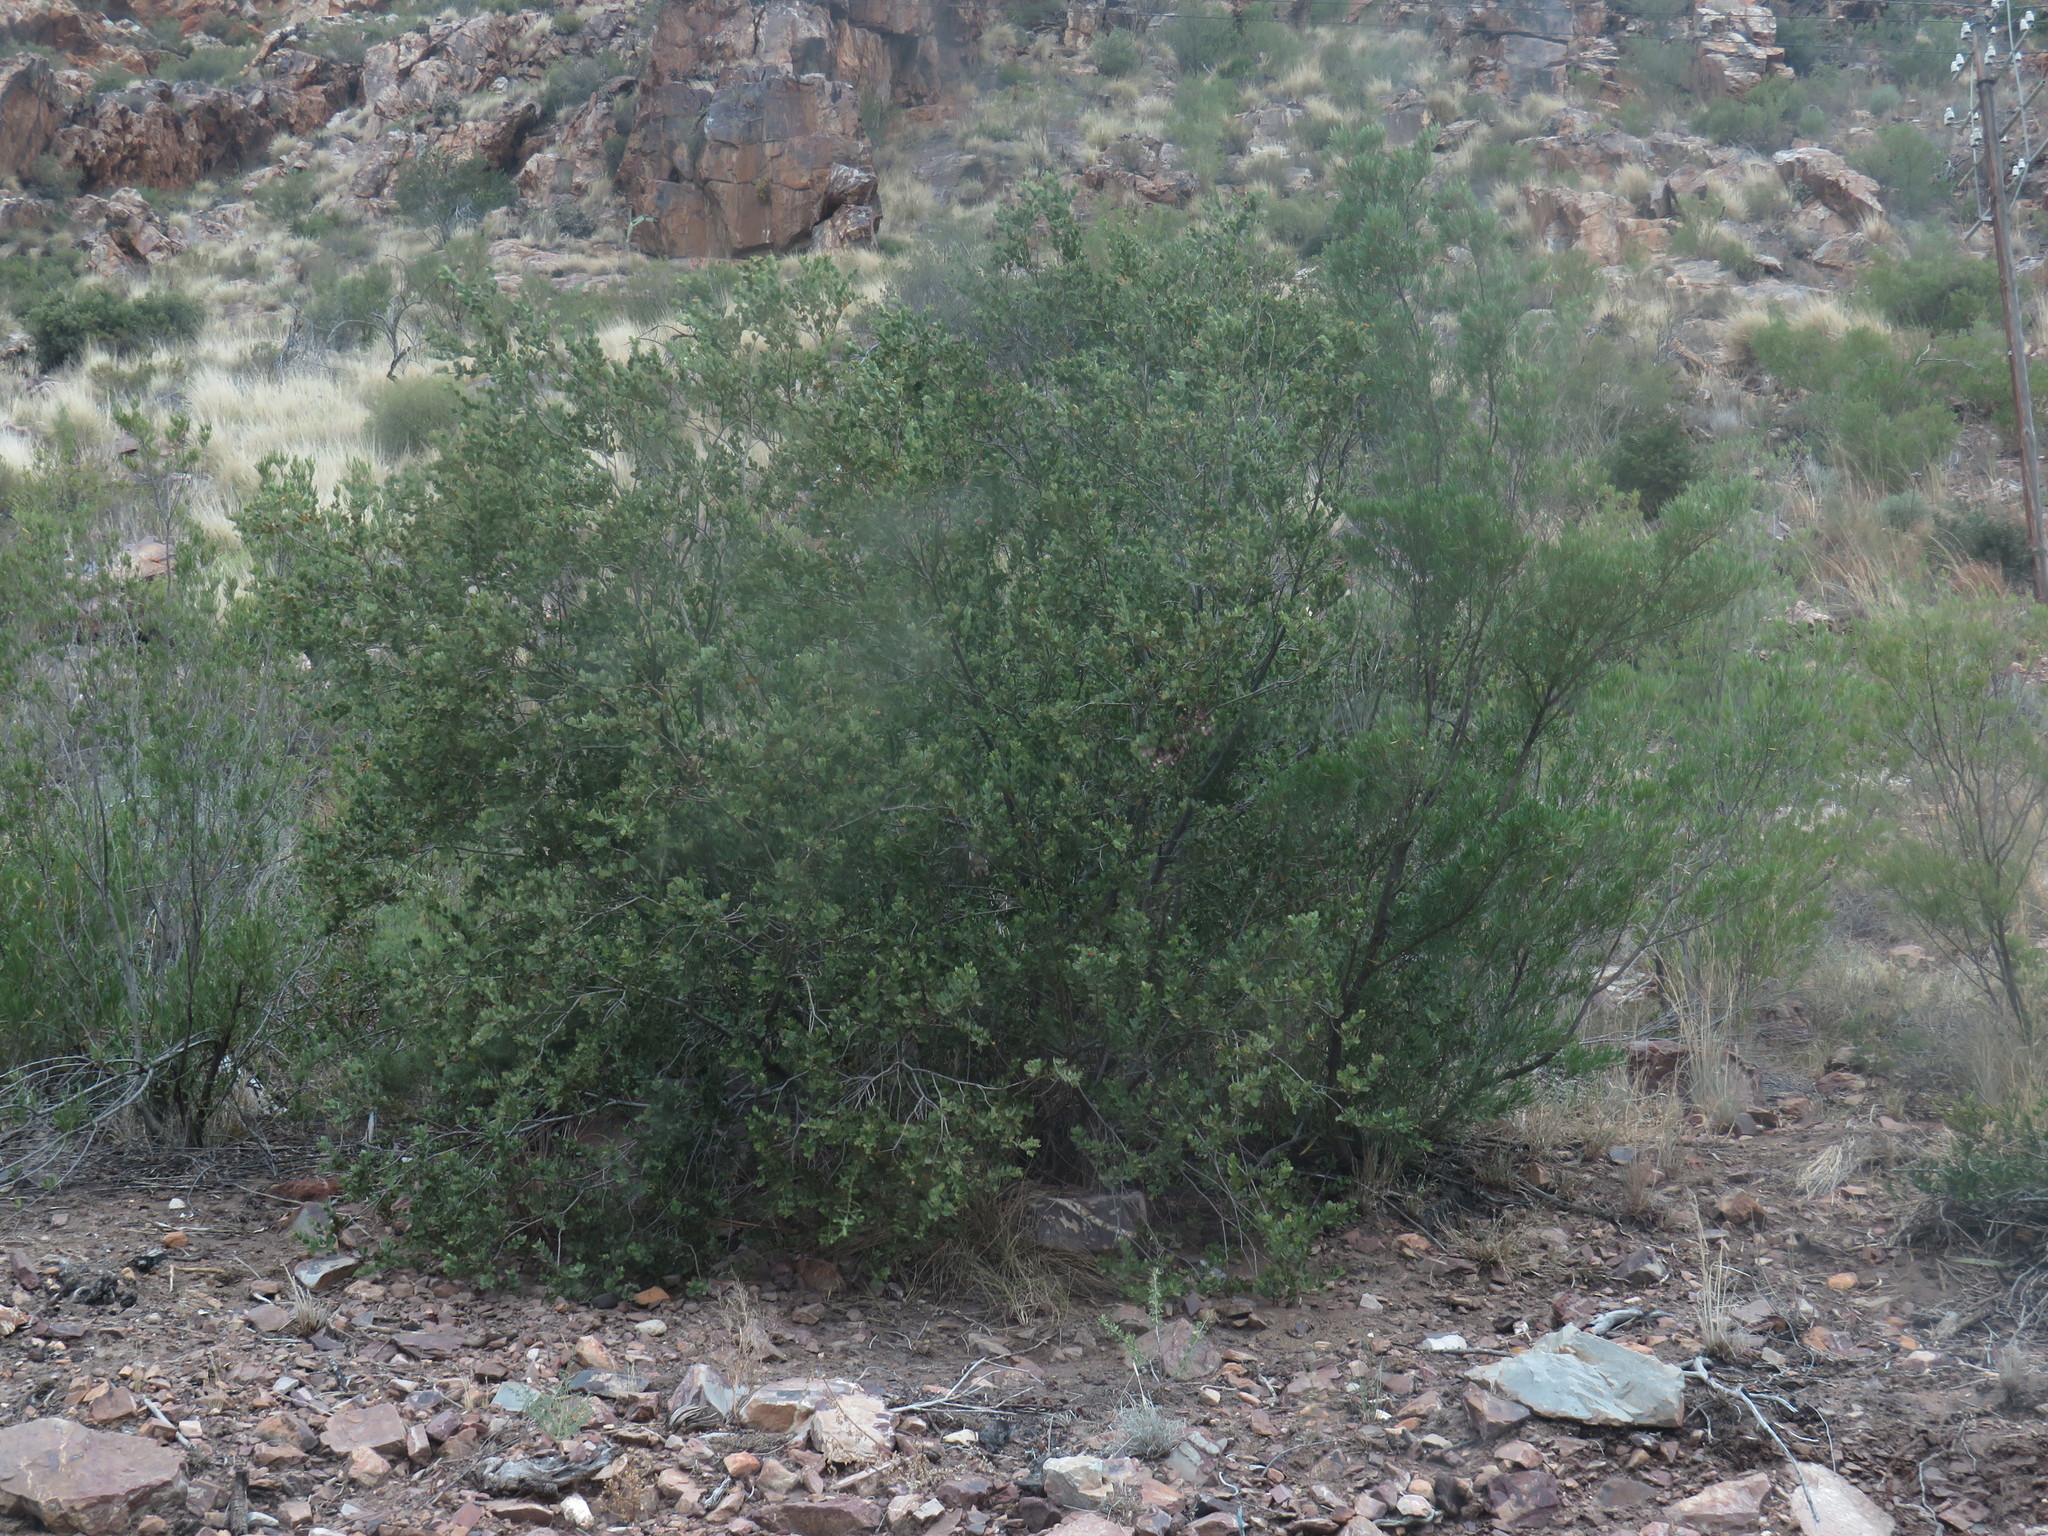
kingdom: Plantae
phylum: Tracheophyta
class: Magnoliopsida
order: Santalales
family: Santalaceae
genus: Osyris
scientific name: Osyris compressa
